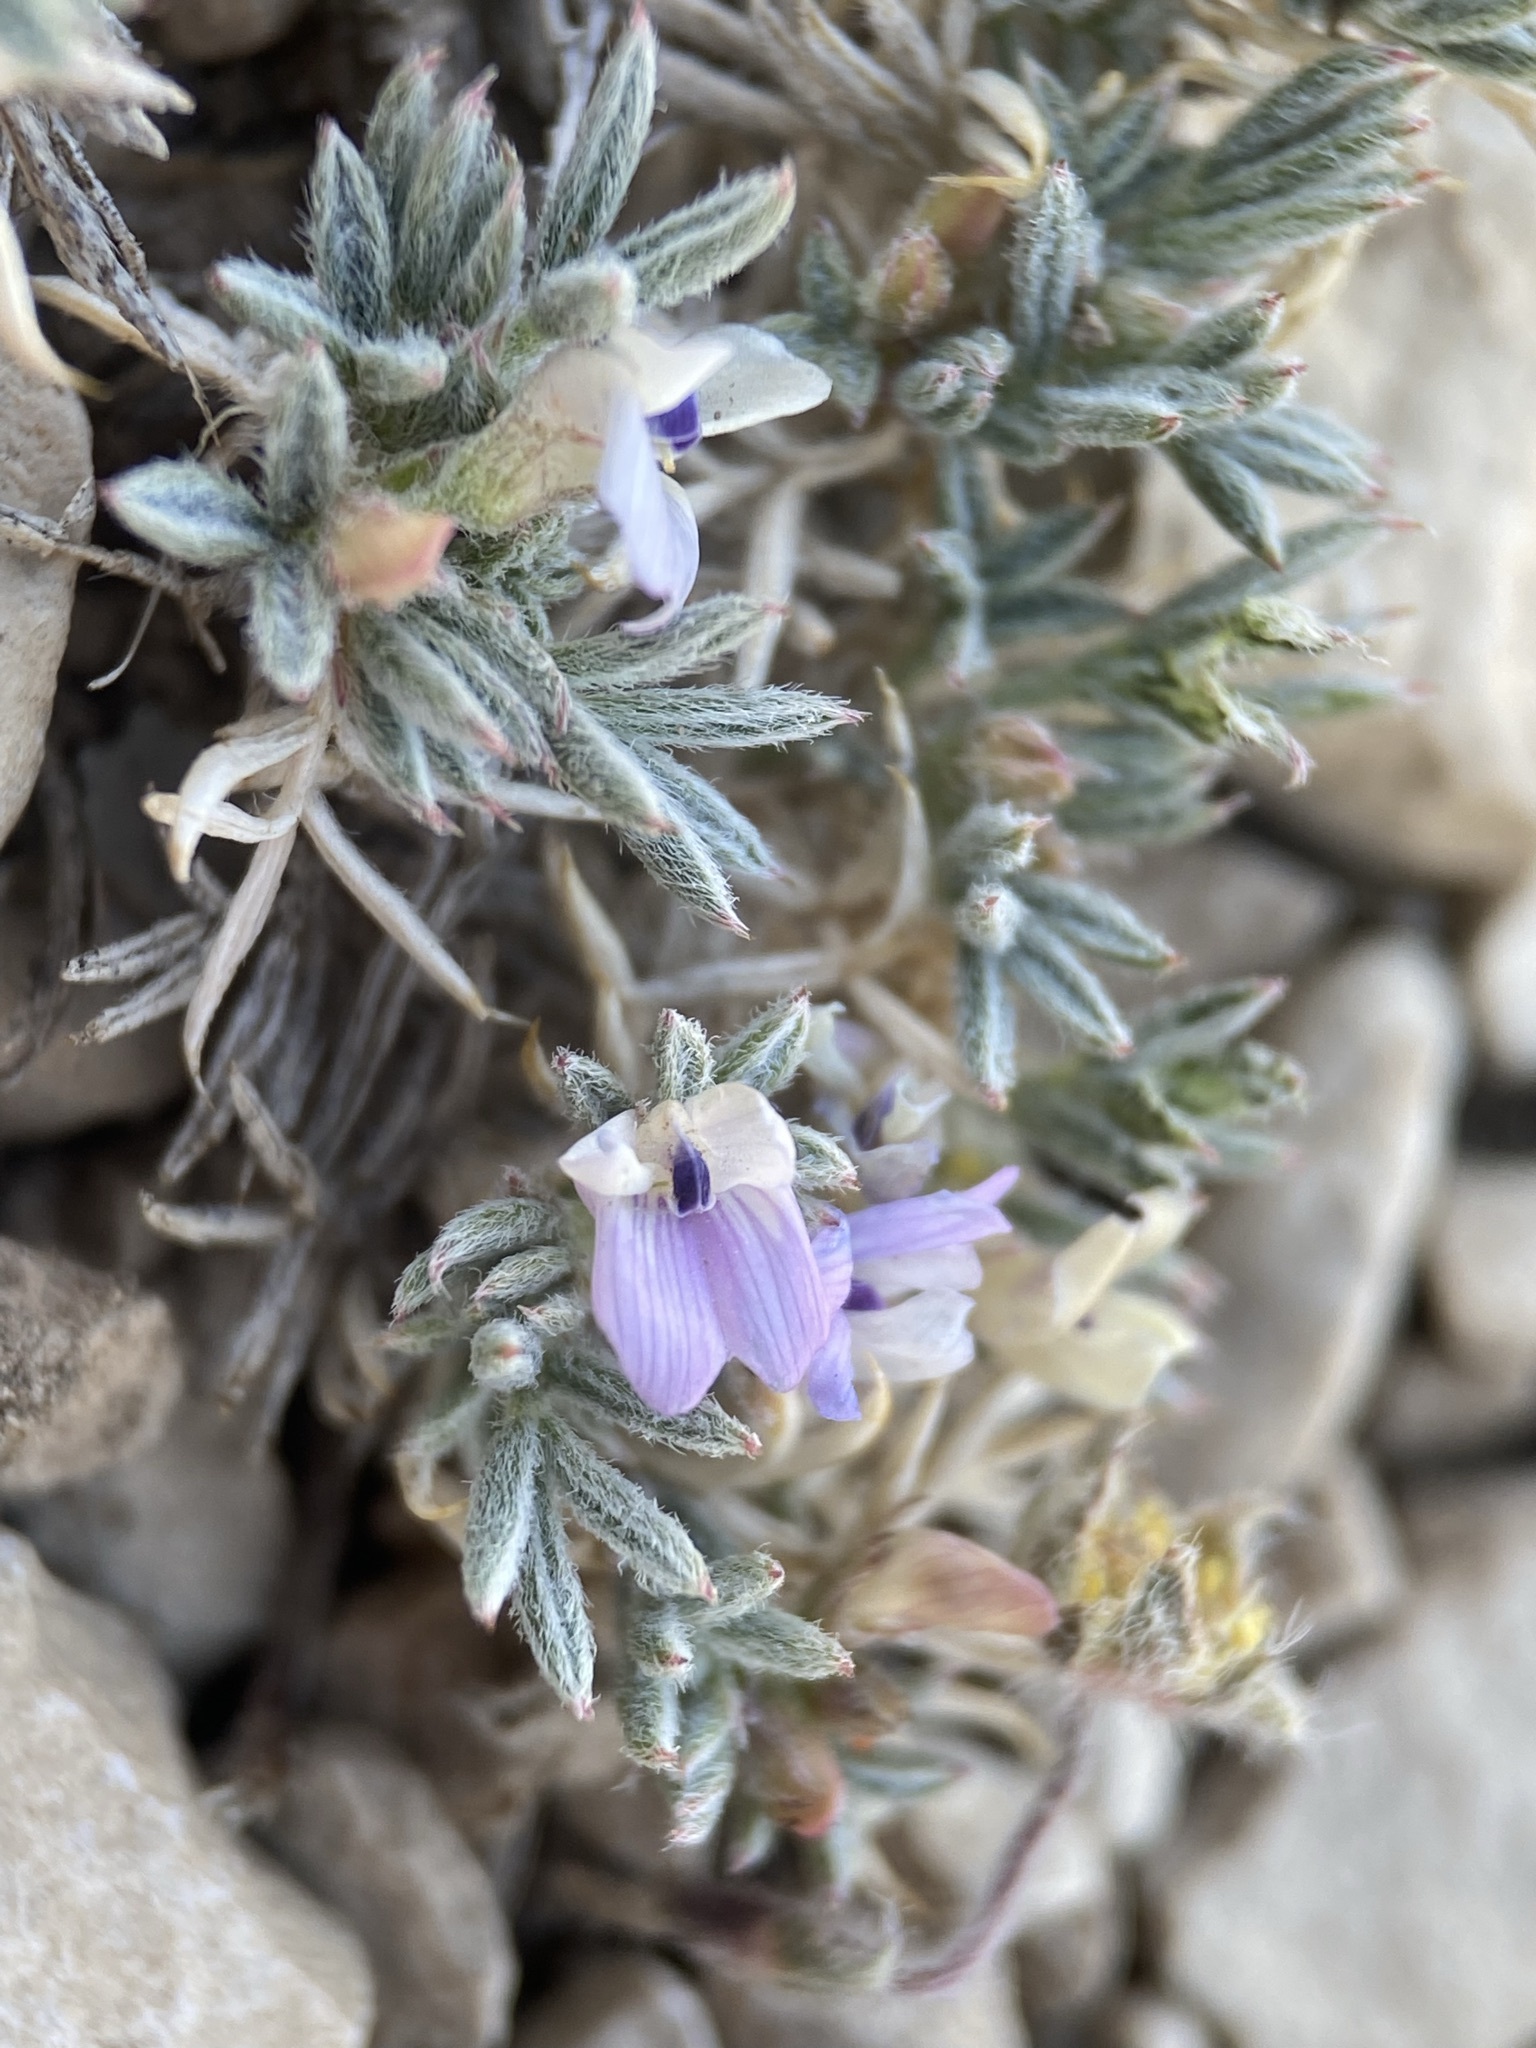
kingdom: Plantae
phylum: Tracheophyta
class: Magnoliopsida
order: Fabales
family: Fabaceae
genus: Astragalus
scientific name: Astragalus kentrophyta
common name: Prickly milk-vetch
